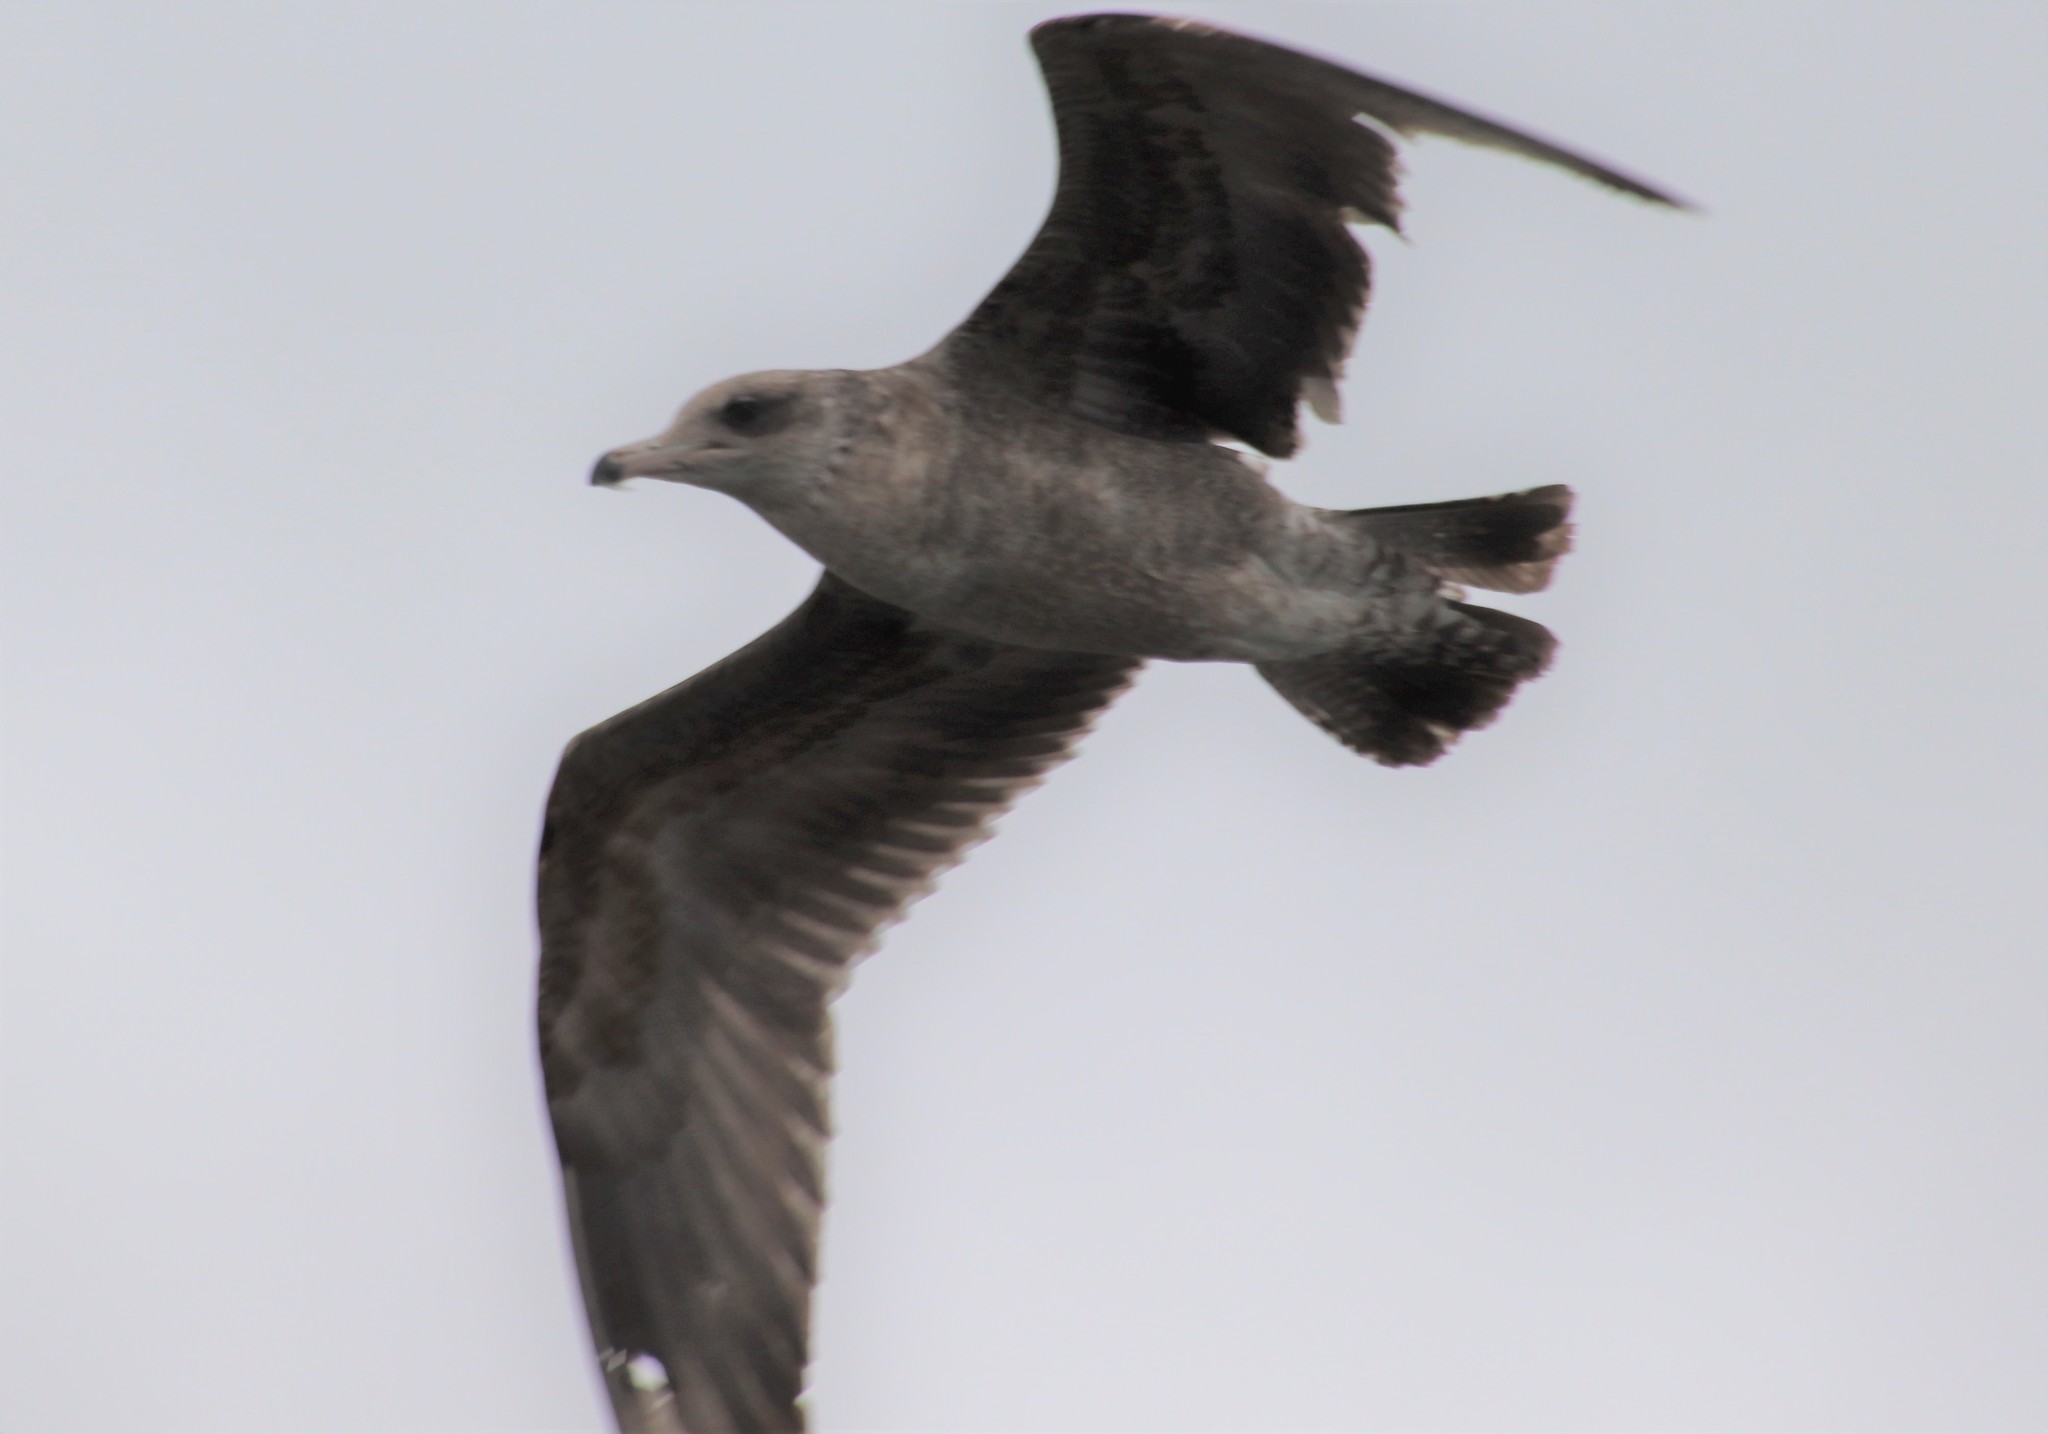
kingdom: Animalia
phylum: Chordata
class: Aves
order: Charadriiformes
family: Laridae
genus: Larus
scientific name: Larus californicus
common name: California gull
